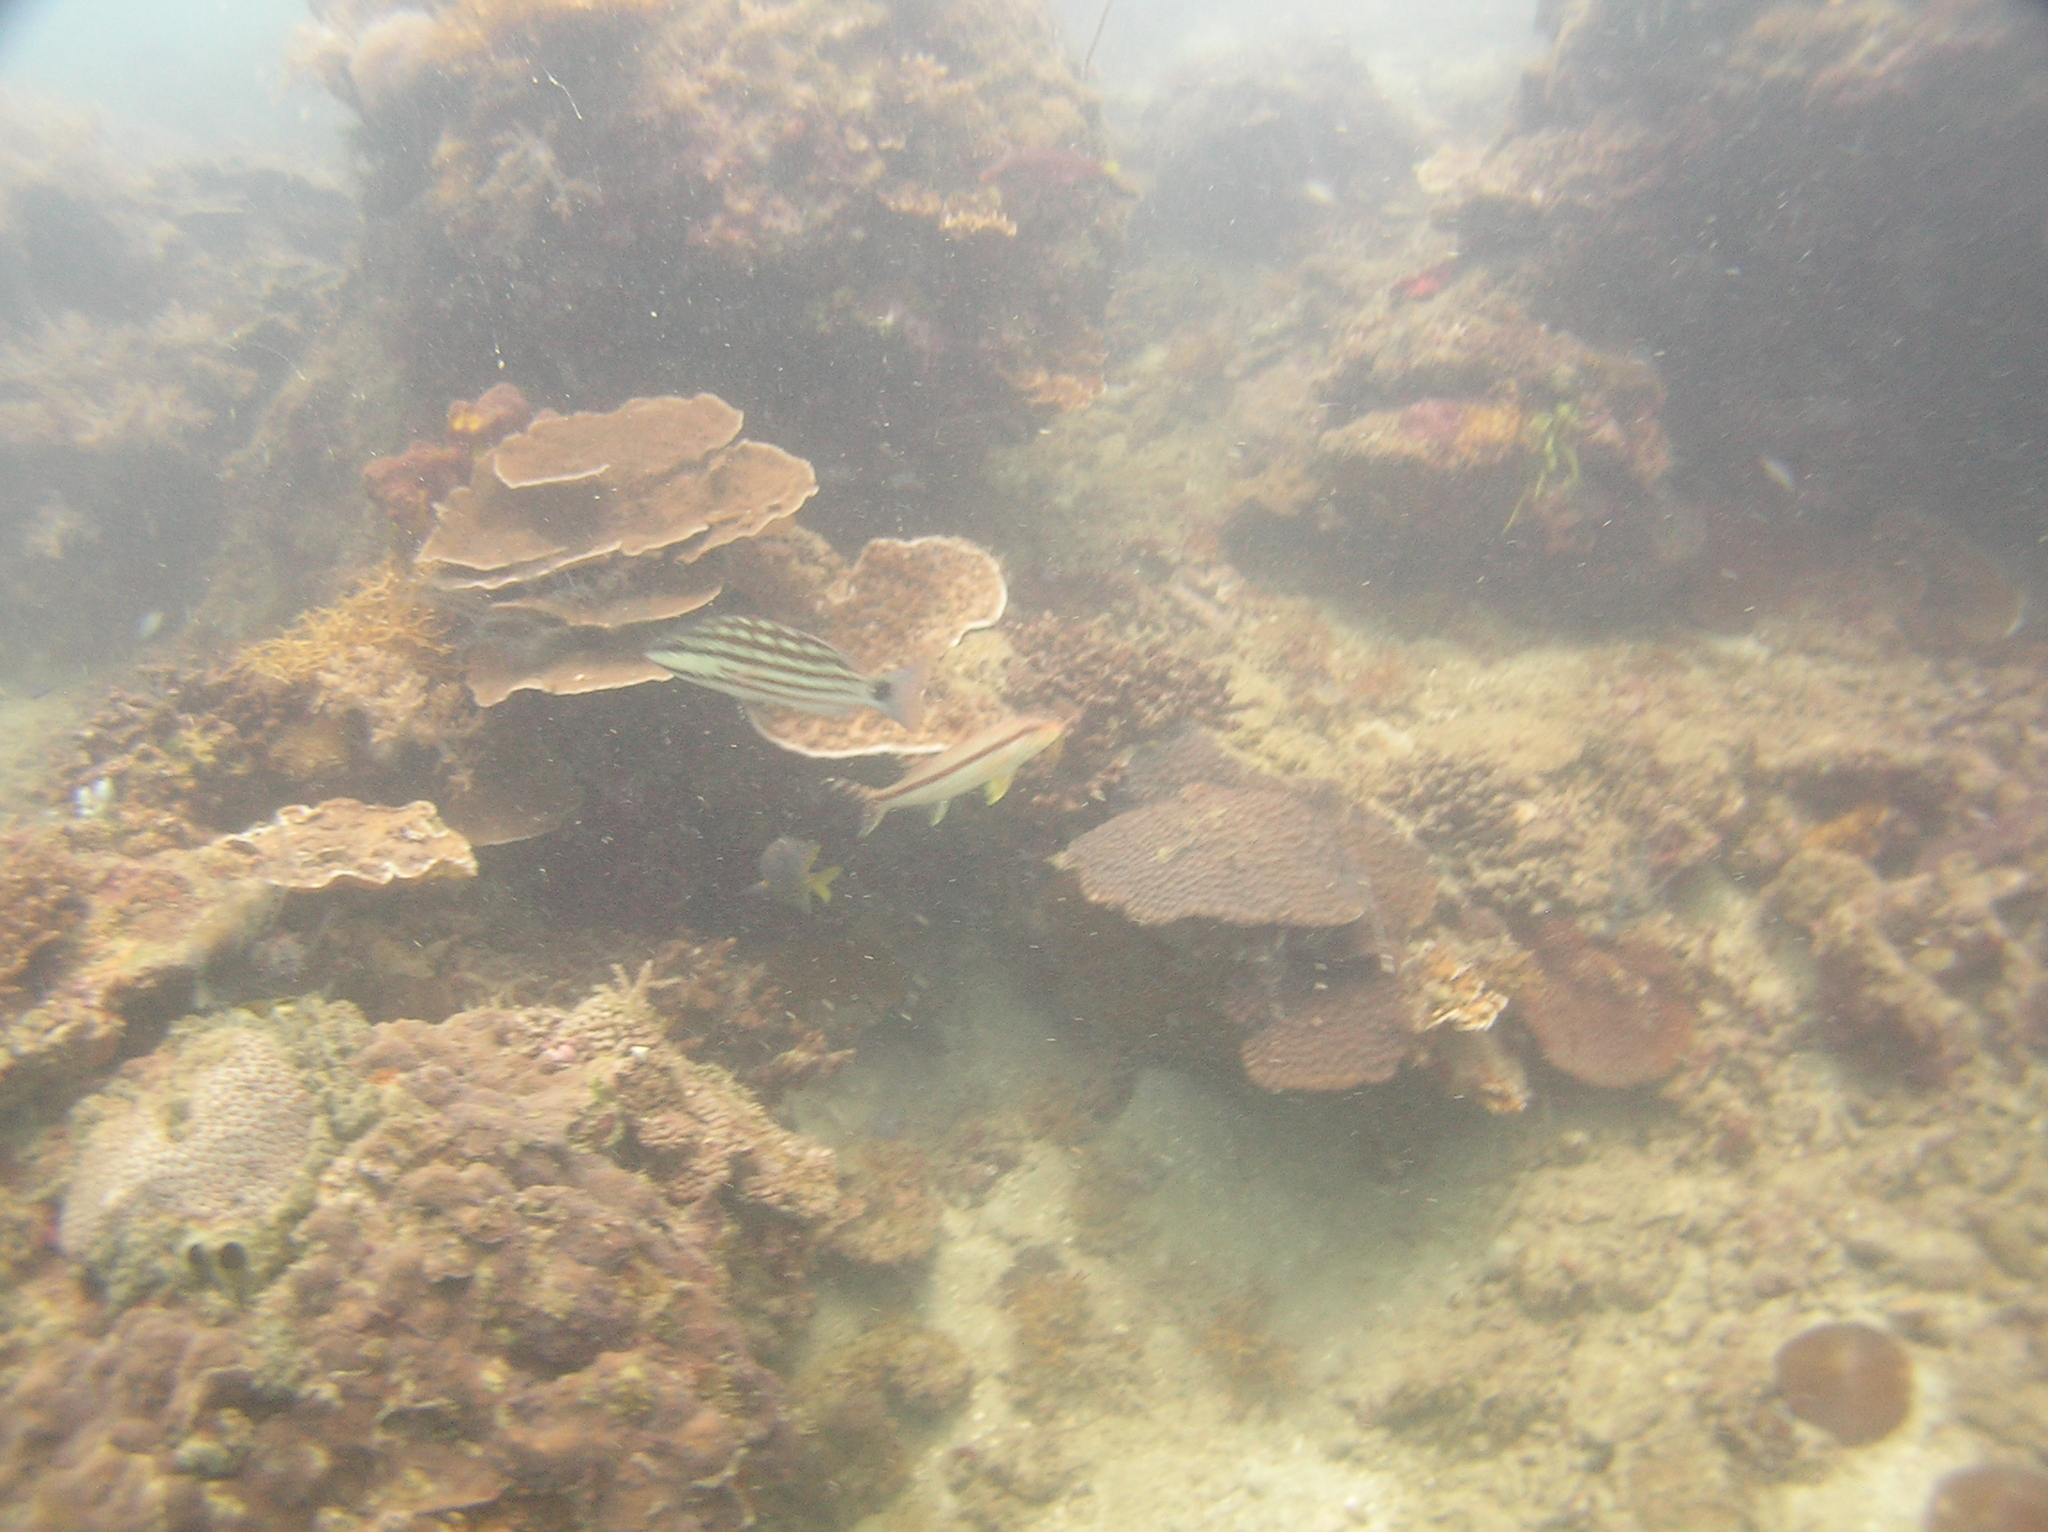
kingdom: Animalia
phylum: Chordata
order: Perciformes
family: Lutjanidae
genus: Lutjanus
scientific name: Lutjanus decussatus
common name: Checkered snapper
